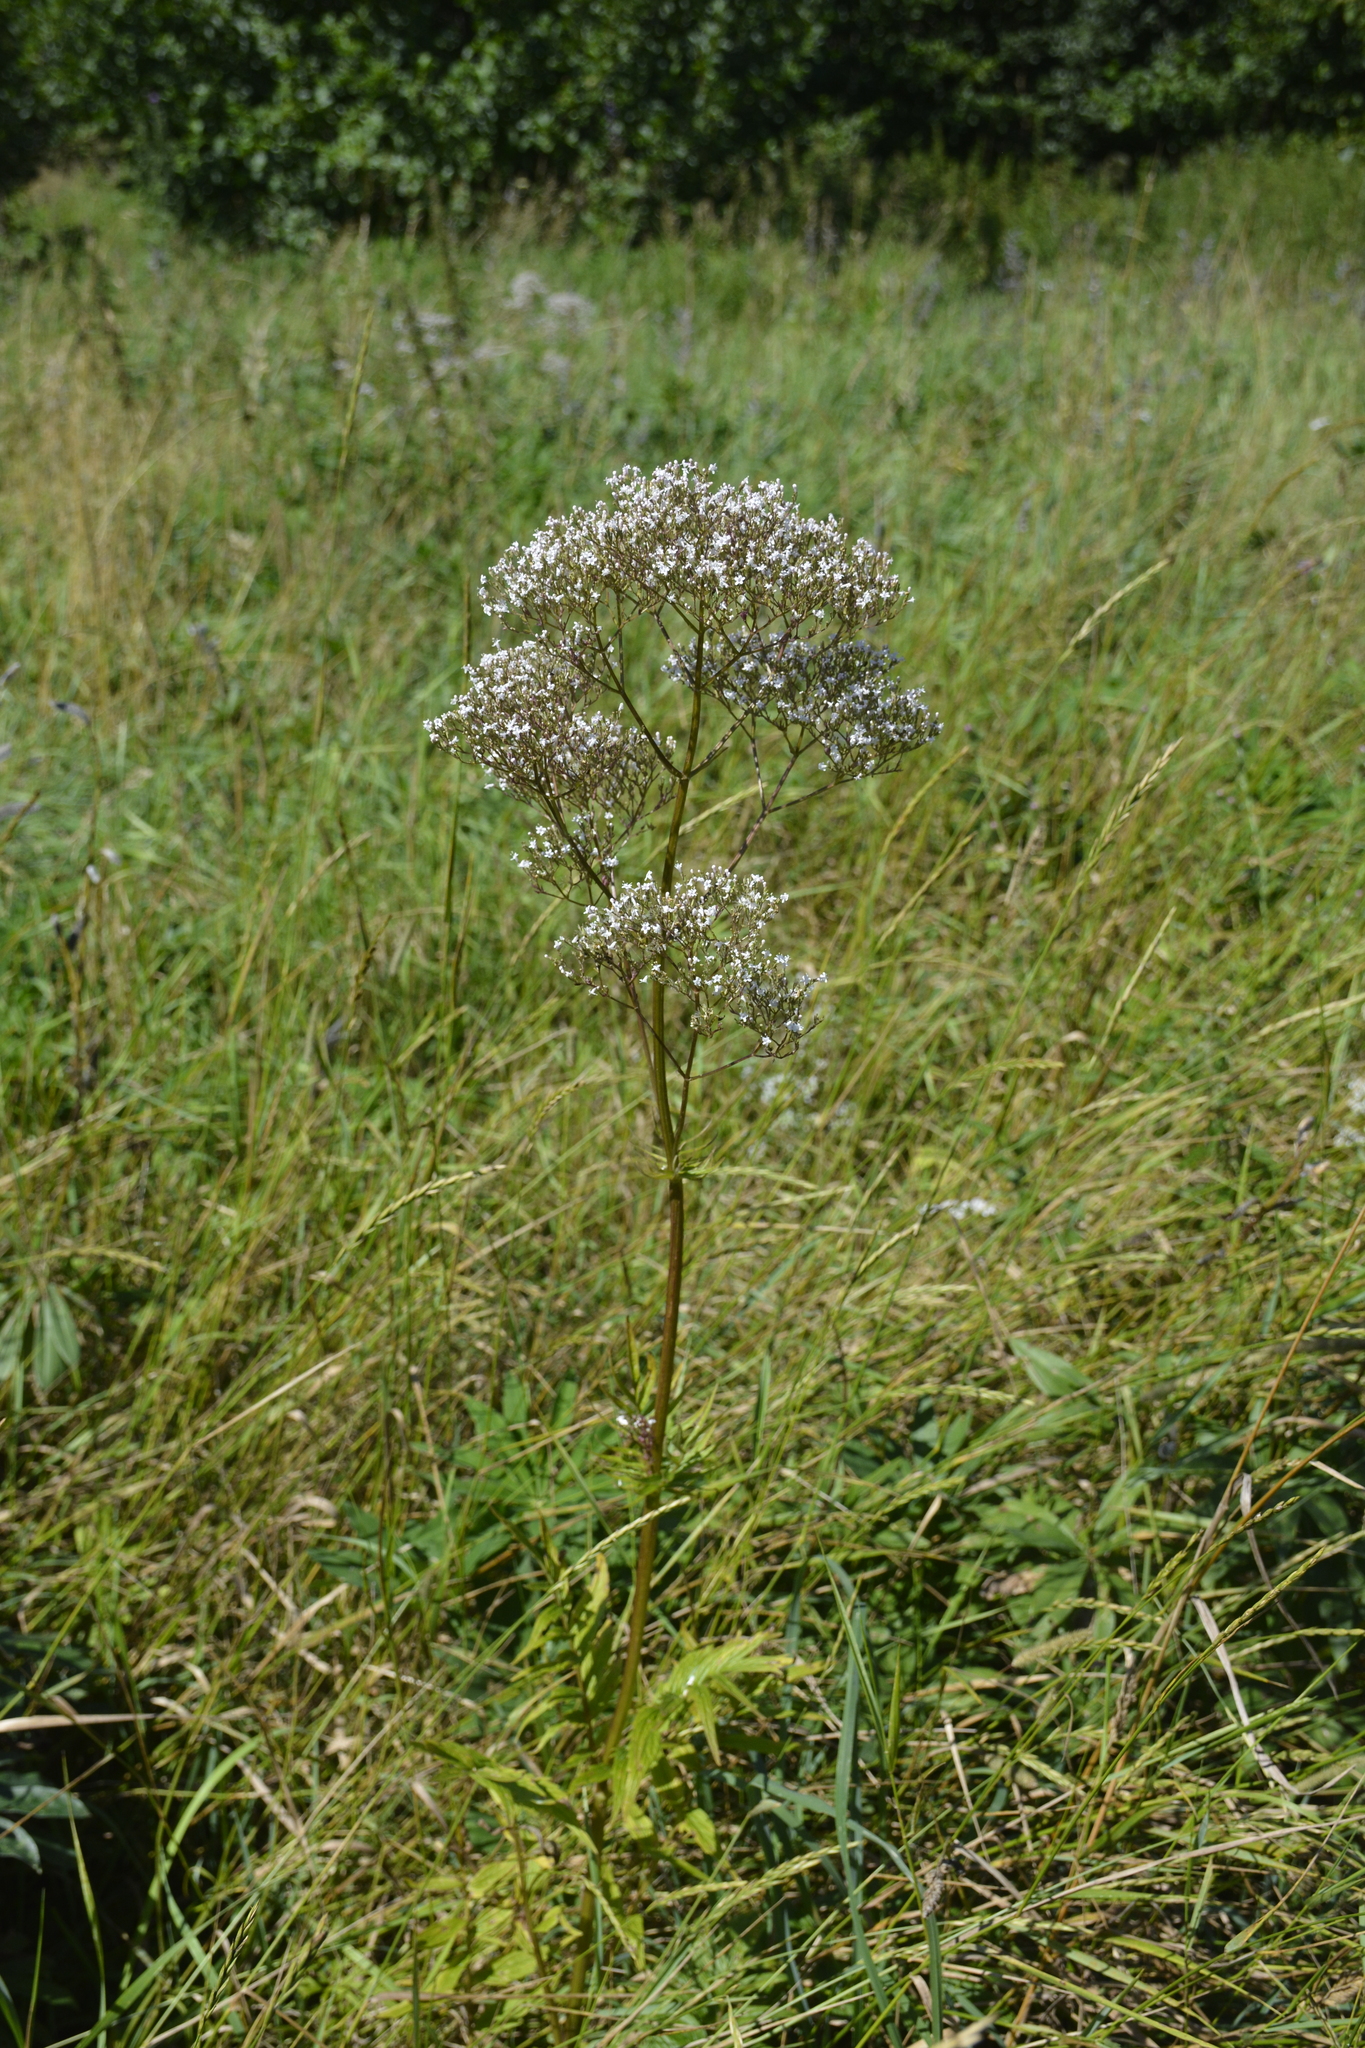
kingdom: Plantae
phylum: Tracheophyta
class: Magnoliopsida
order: Dipsacales
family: Caprifoliaceae
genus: Valeriana
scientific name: Valeriana officinalis
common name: Common valerian
